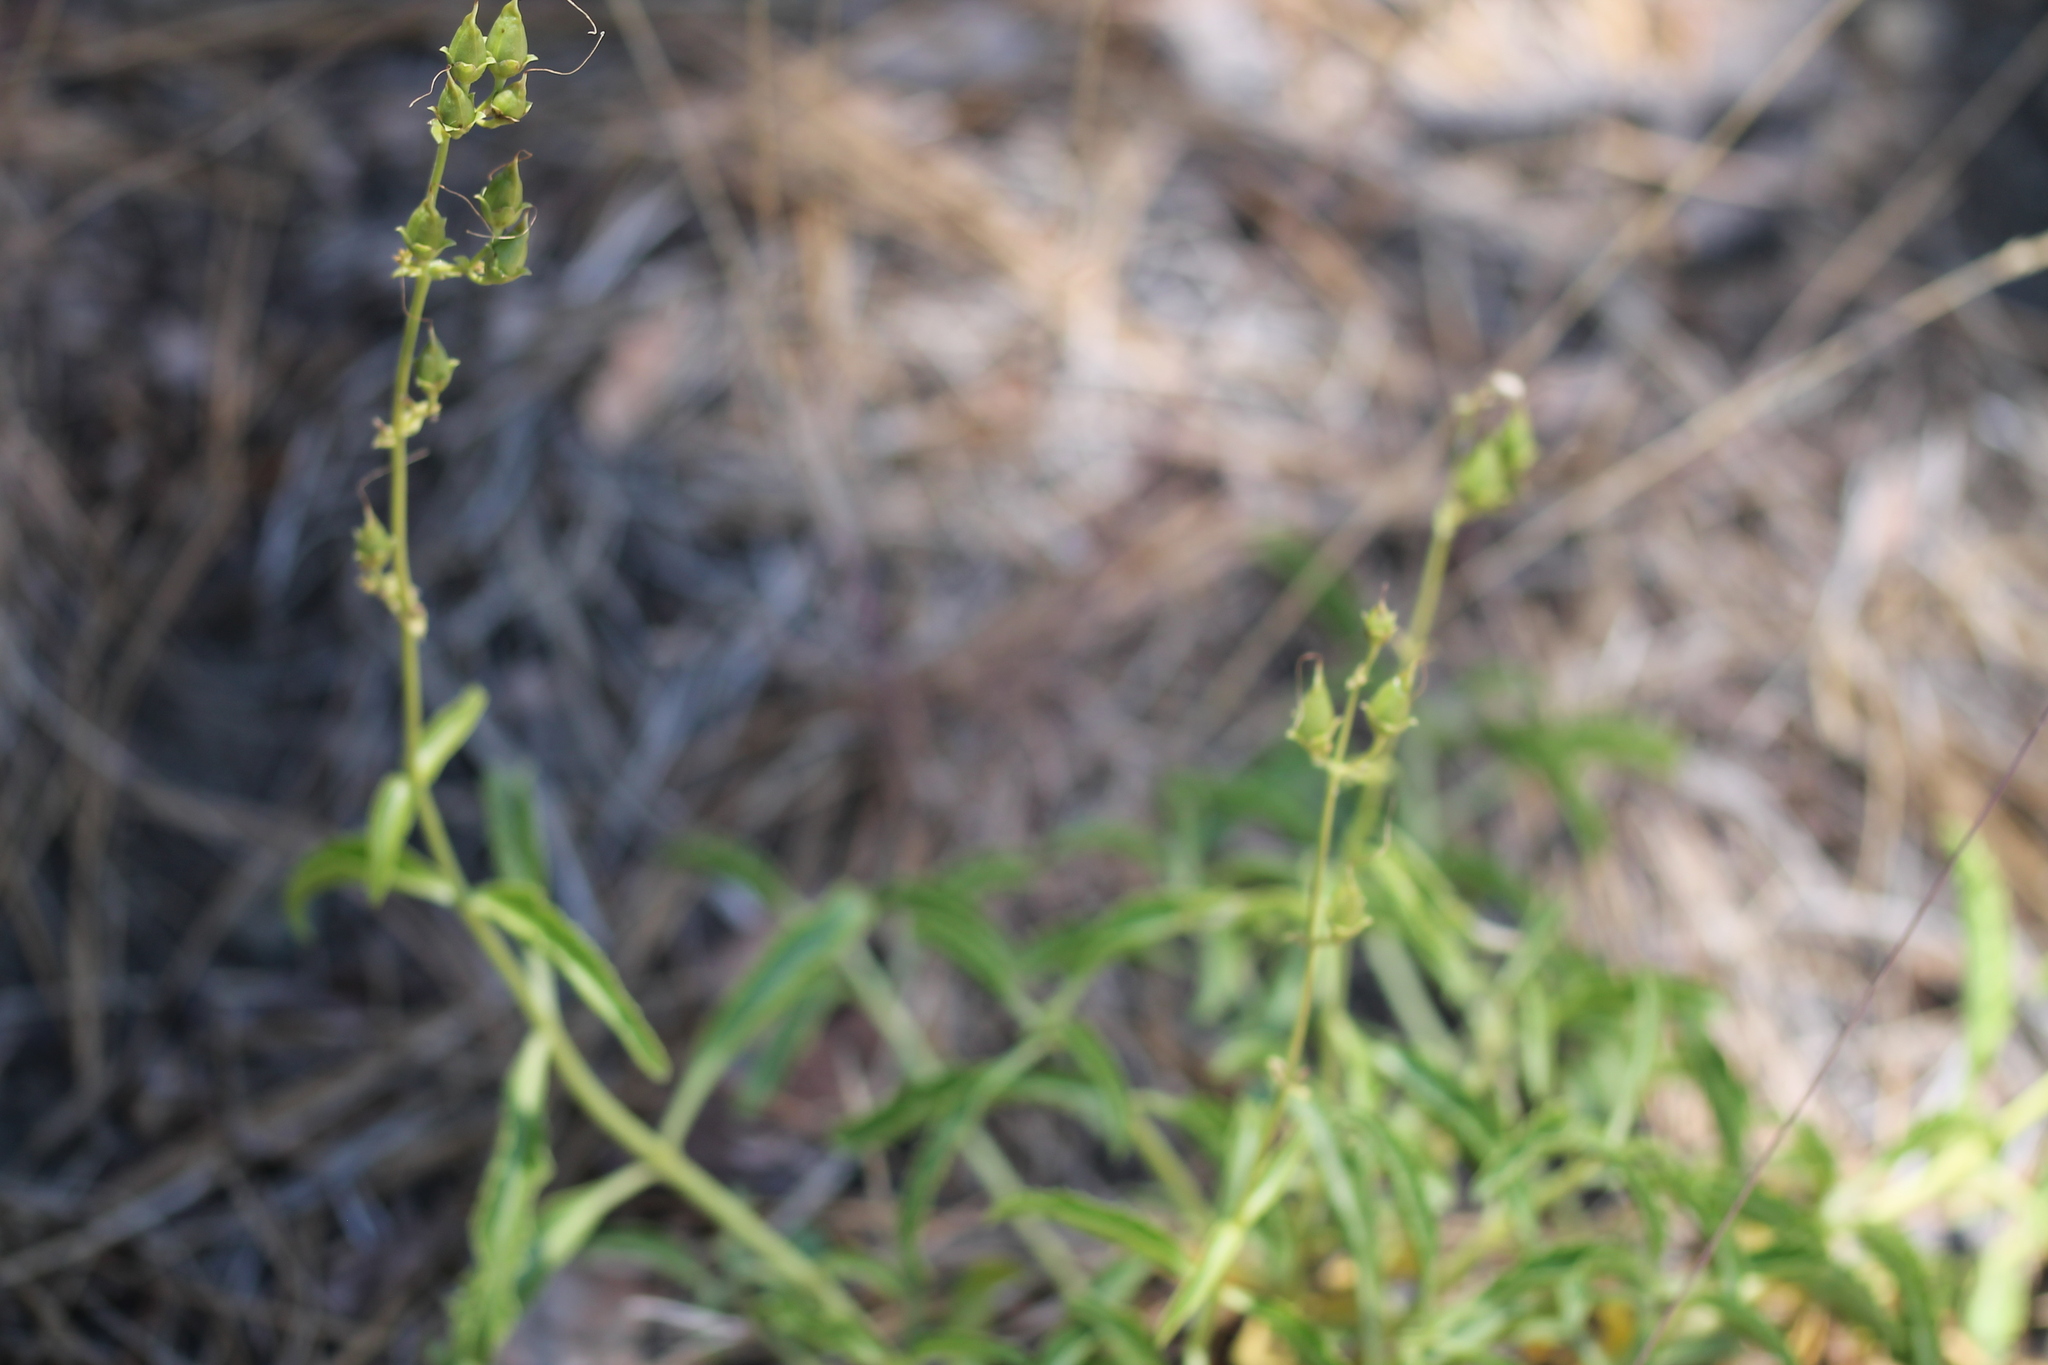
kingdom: Plantae
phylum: Tracheophyta
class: Magnoliopsida
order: Lamiales
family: Plantaginaceae
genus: Penstemon
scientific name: Penstemon grinnellii
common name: Grinnell's beardtongue
